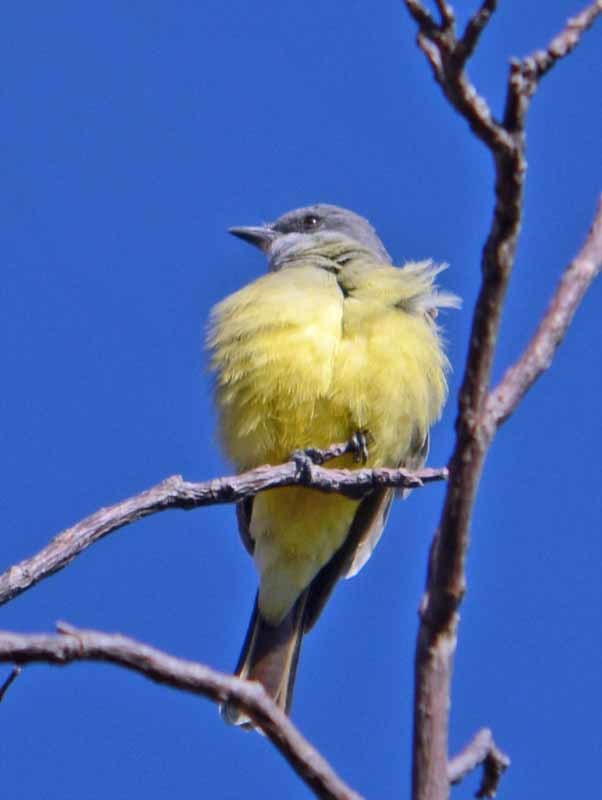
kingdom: Animalia
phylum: Chordata
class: Aves
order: Passeriformes
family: Tyrannidae
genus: Tyrannus
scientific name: Tyrannus vociferans
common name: Cassin's kingbird
